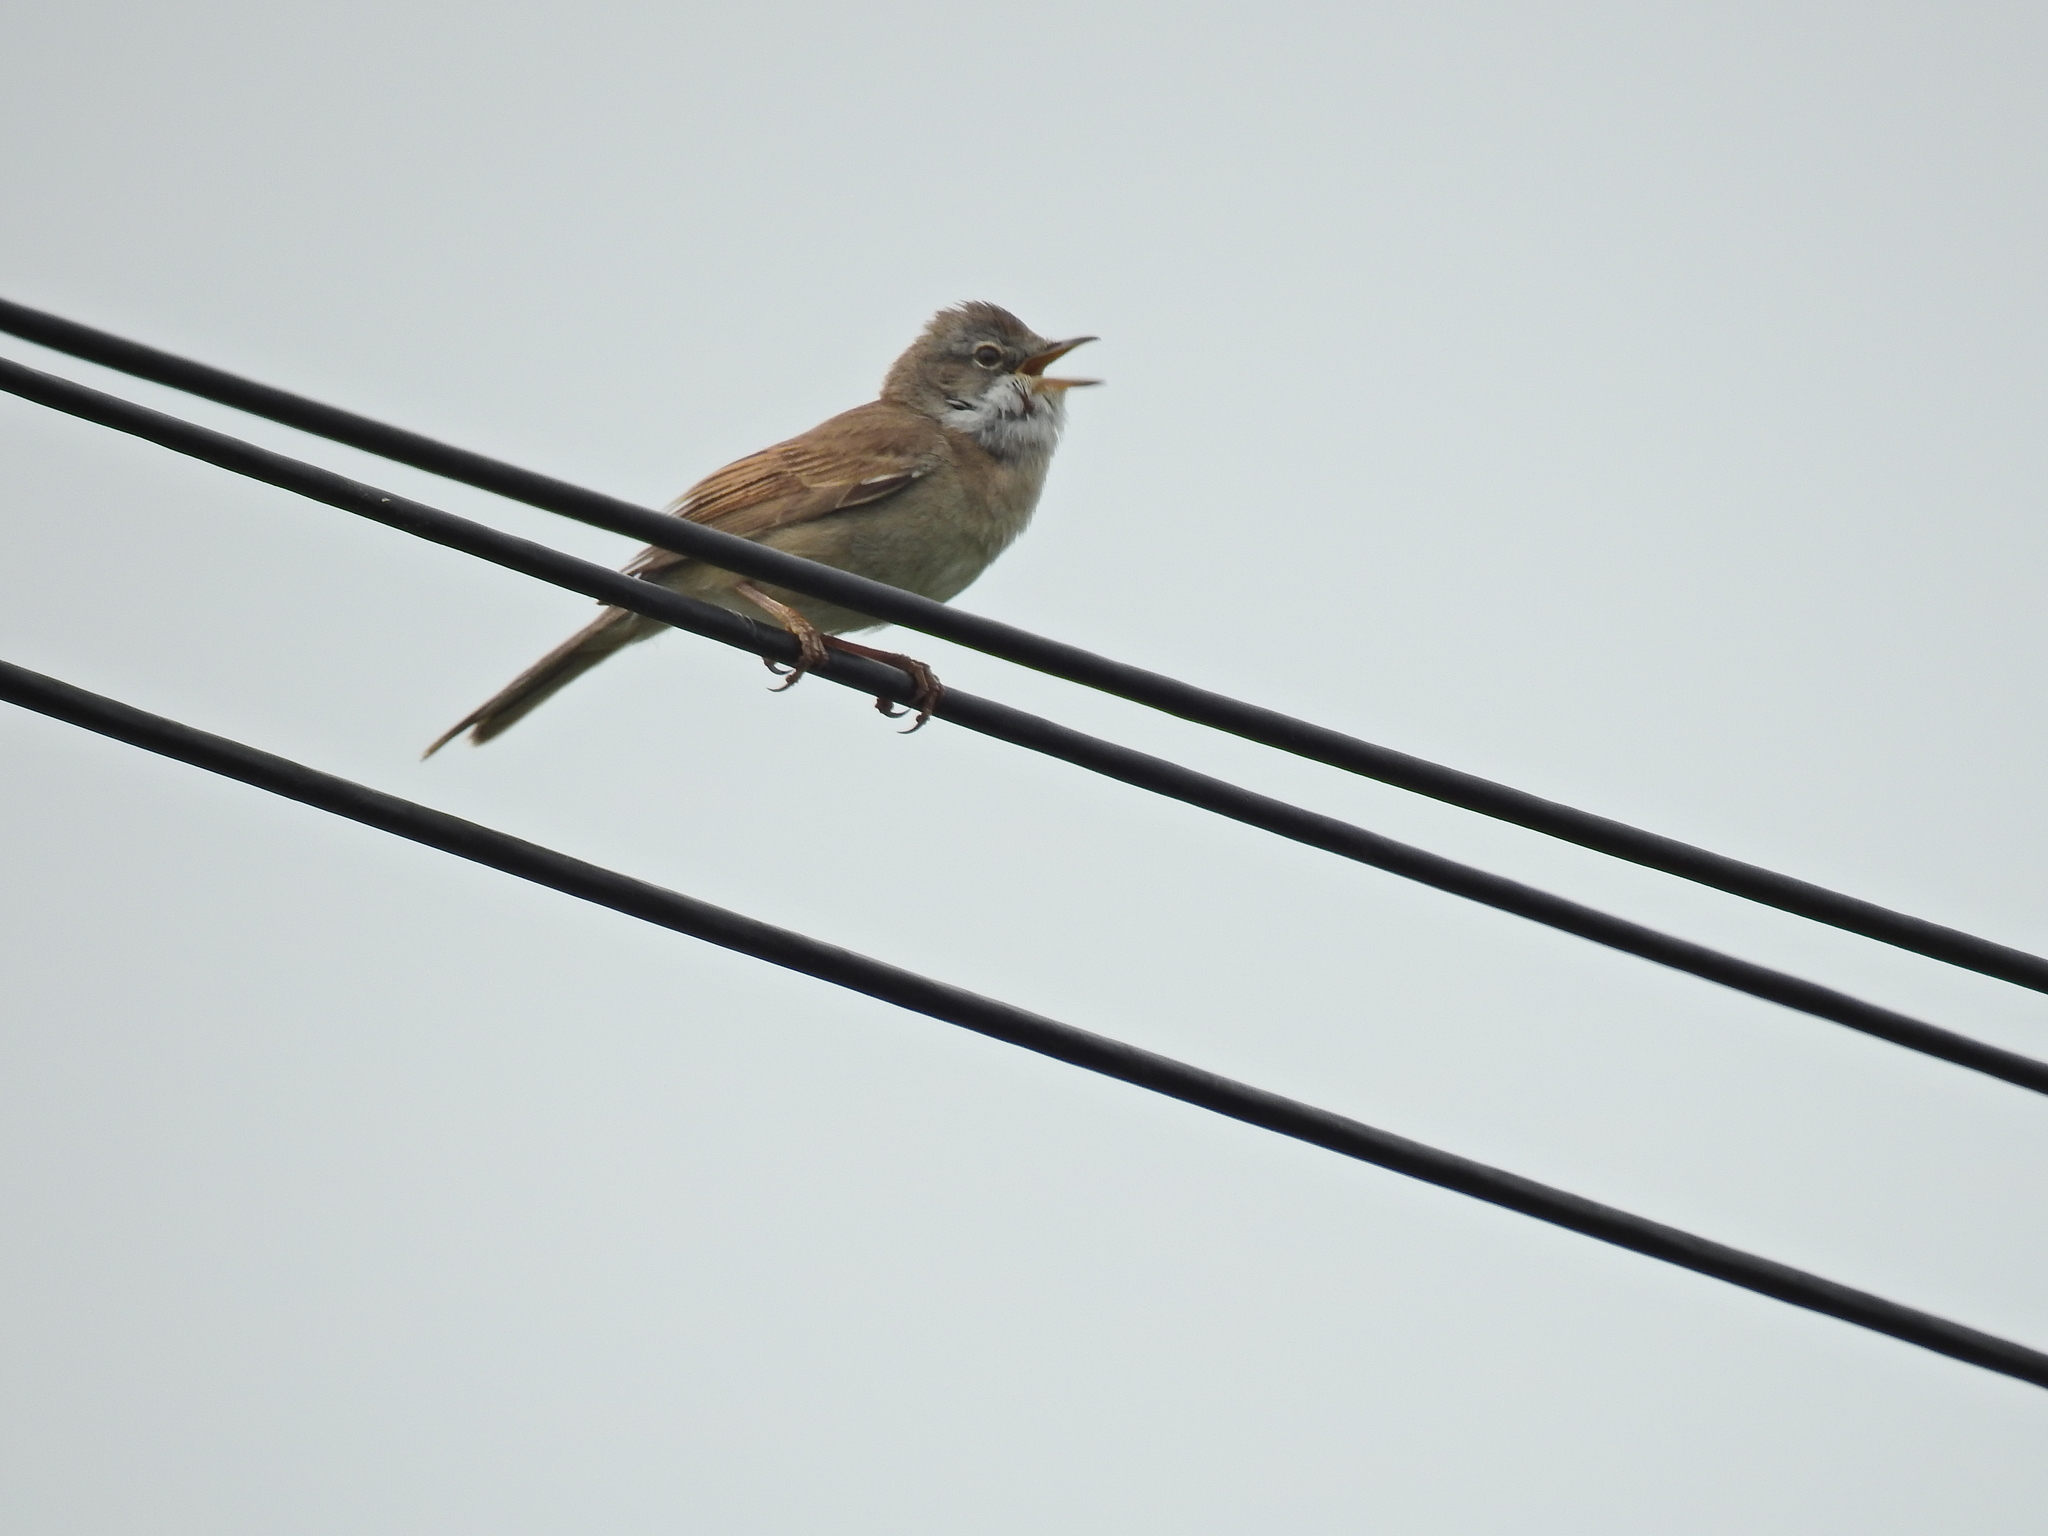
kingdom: Animalia
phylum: Chordata
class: Aves
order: Passeriformes
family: Sylviidae
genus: Sylvia
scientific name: Sylvia communis
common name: Common whitethroat
